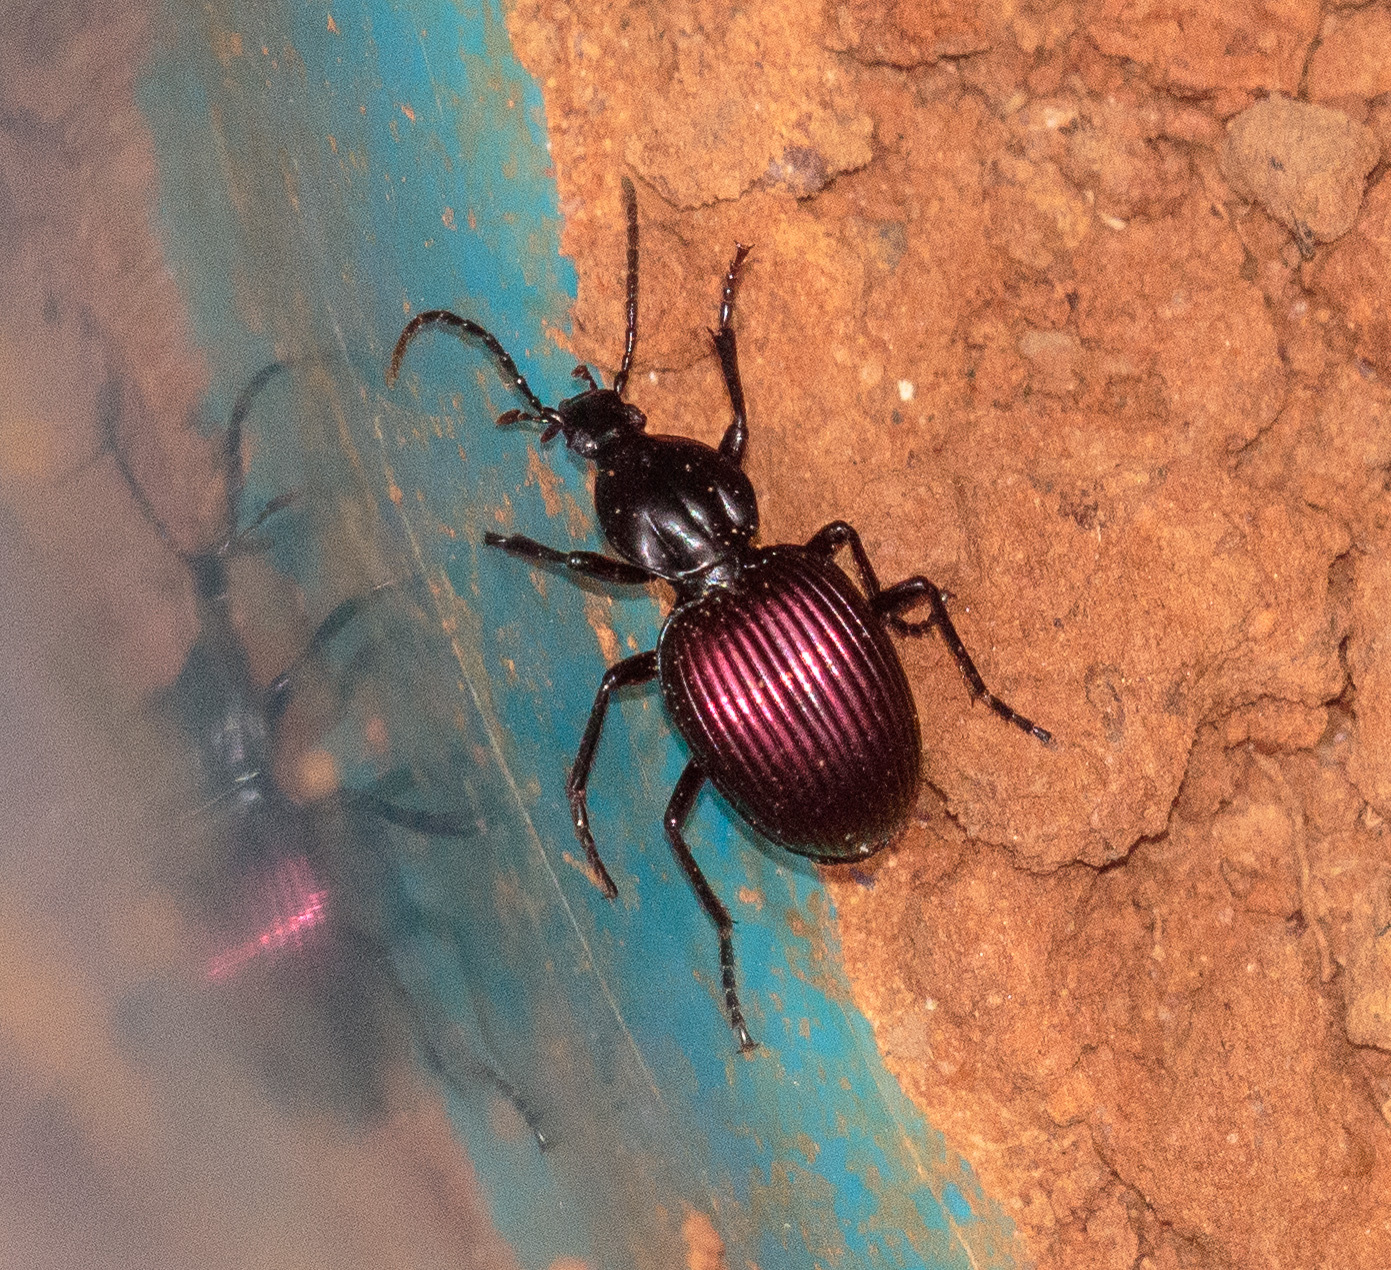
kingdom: Animalia
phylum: Arthropoda
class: Insecta
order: Coleoptera
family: Carabidae
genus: Brachygnathus
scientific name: Brachygnathus muticus
